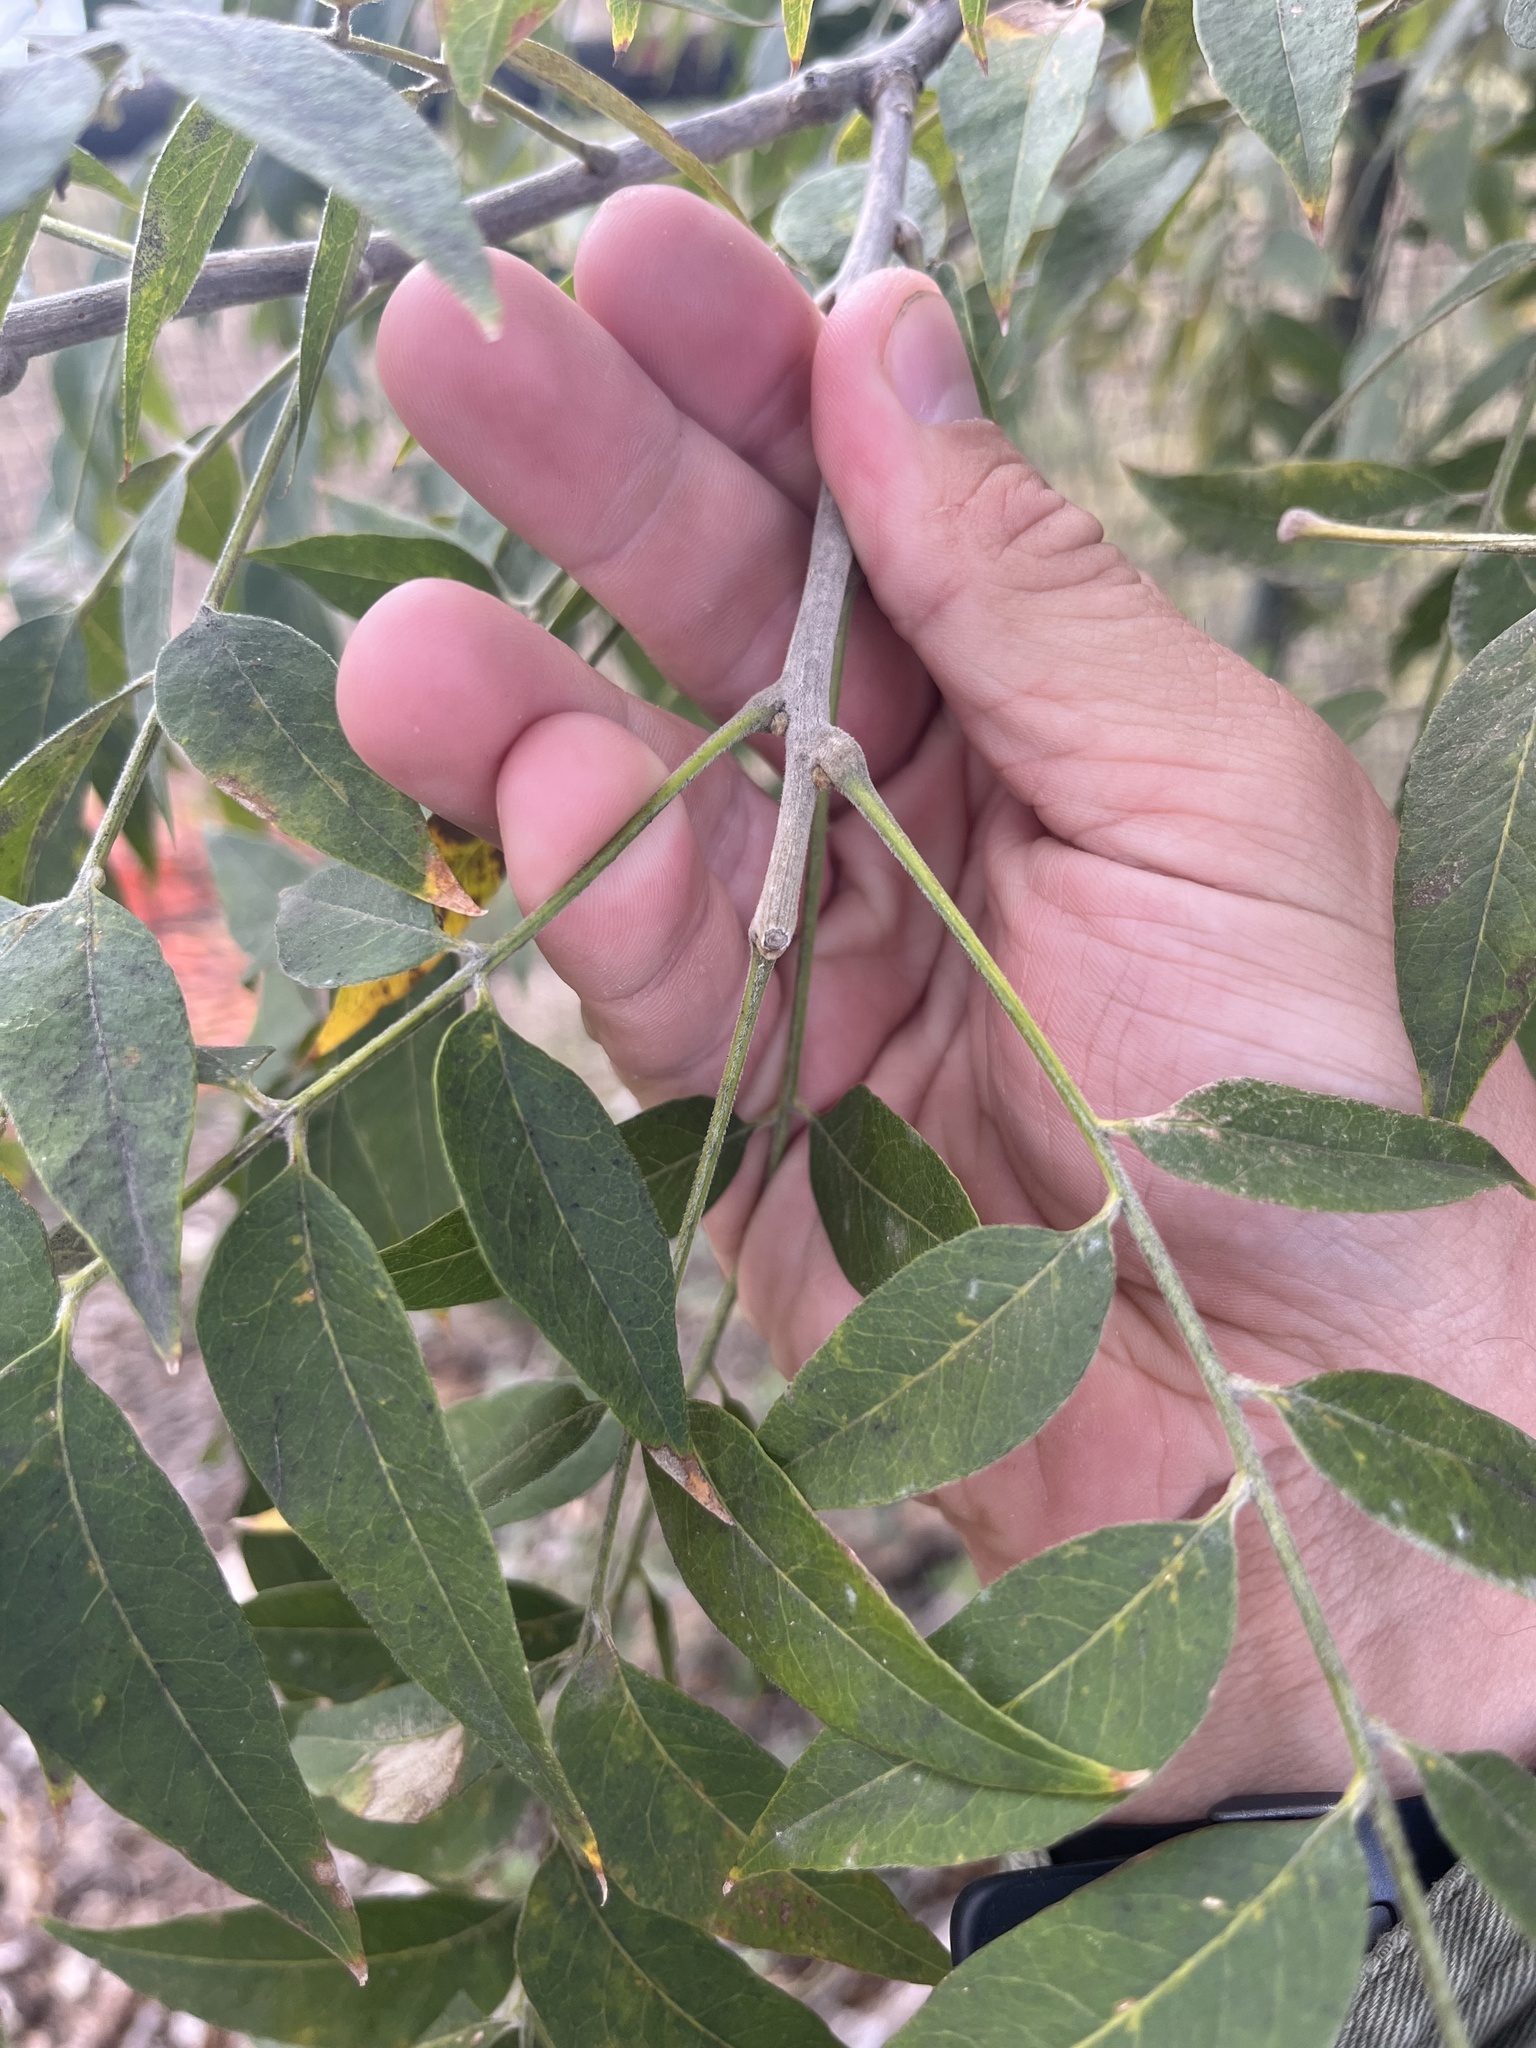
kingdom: Plantae
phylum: Tracheophyta
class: Magnoliopsida
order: Sapindales
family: Sapindaceae
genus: Sapindus
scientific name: Sapindus drummondii
